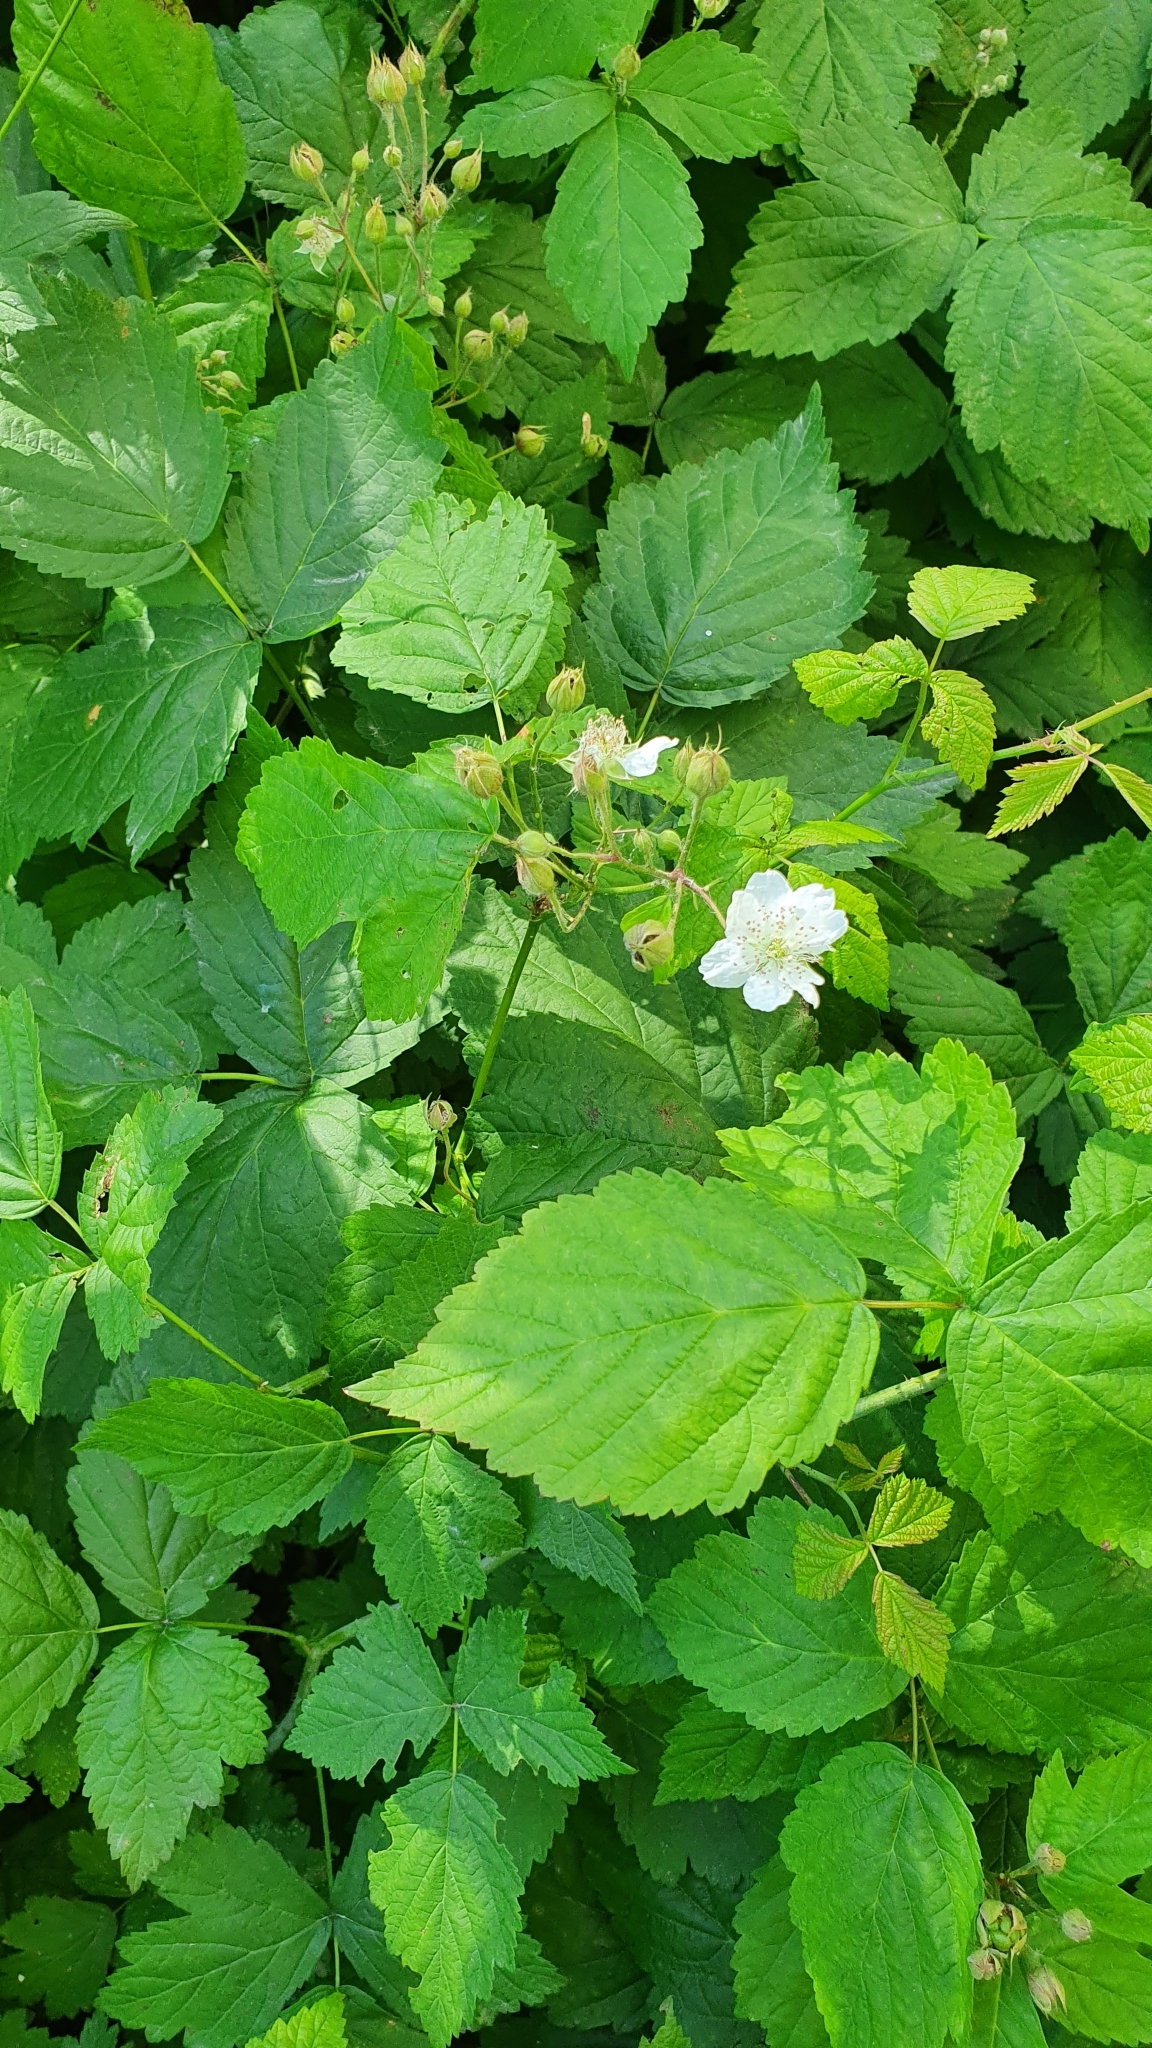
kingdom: Plantae
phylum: Tracheophyta
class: Magnoliopsida
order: Rosales
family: Rosaceae
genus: Rubus
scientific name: Rubus caesius
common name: Dewberry
